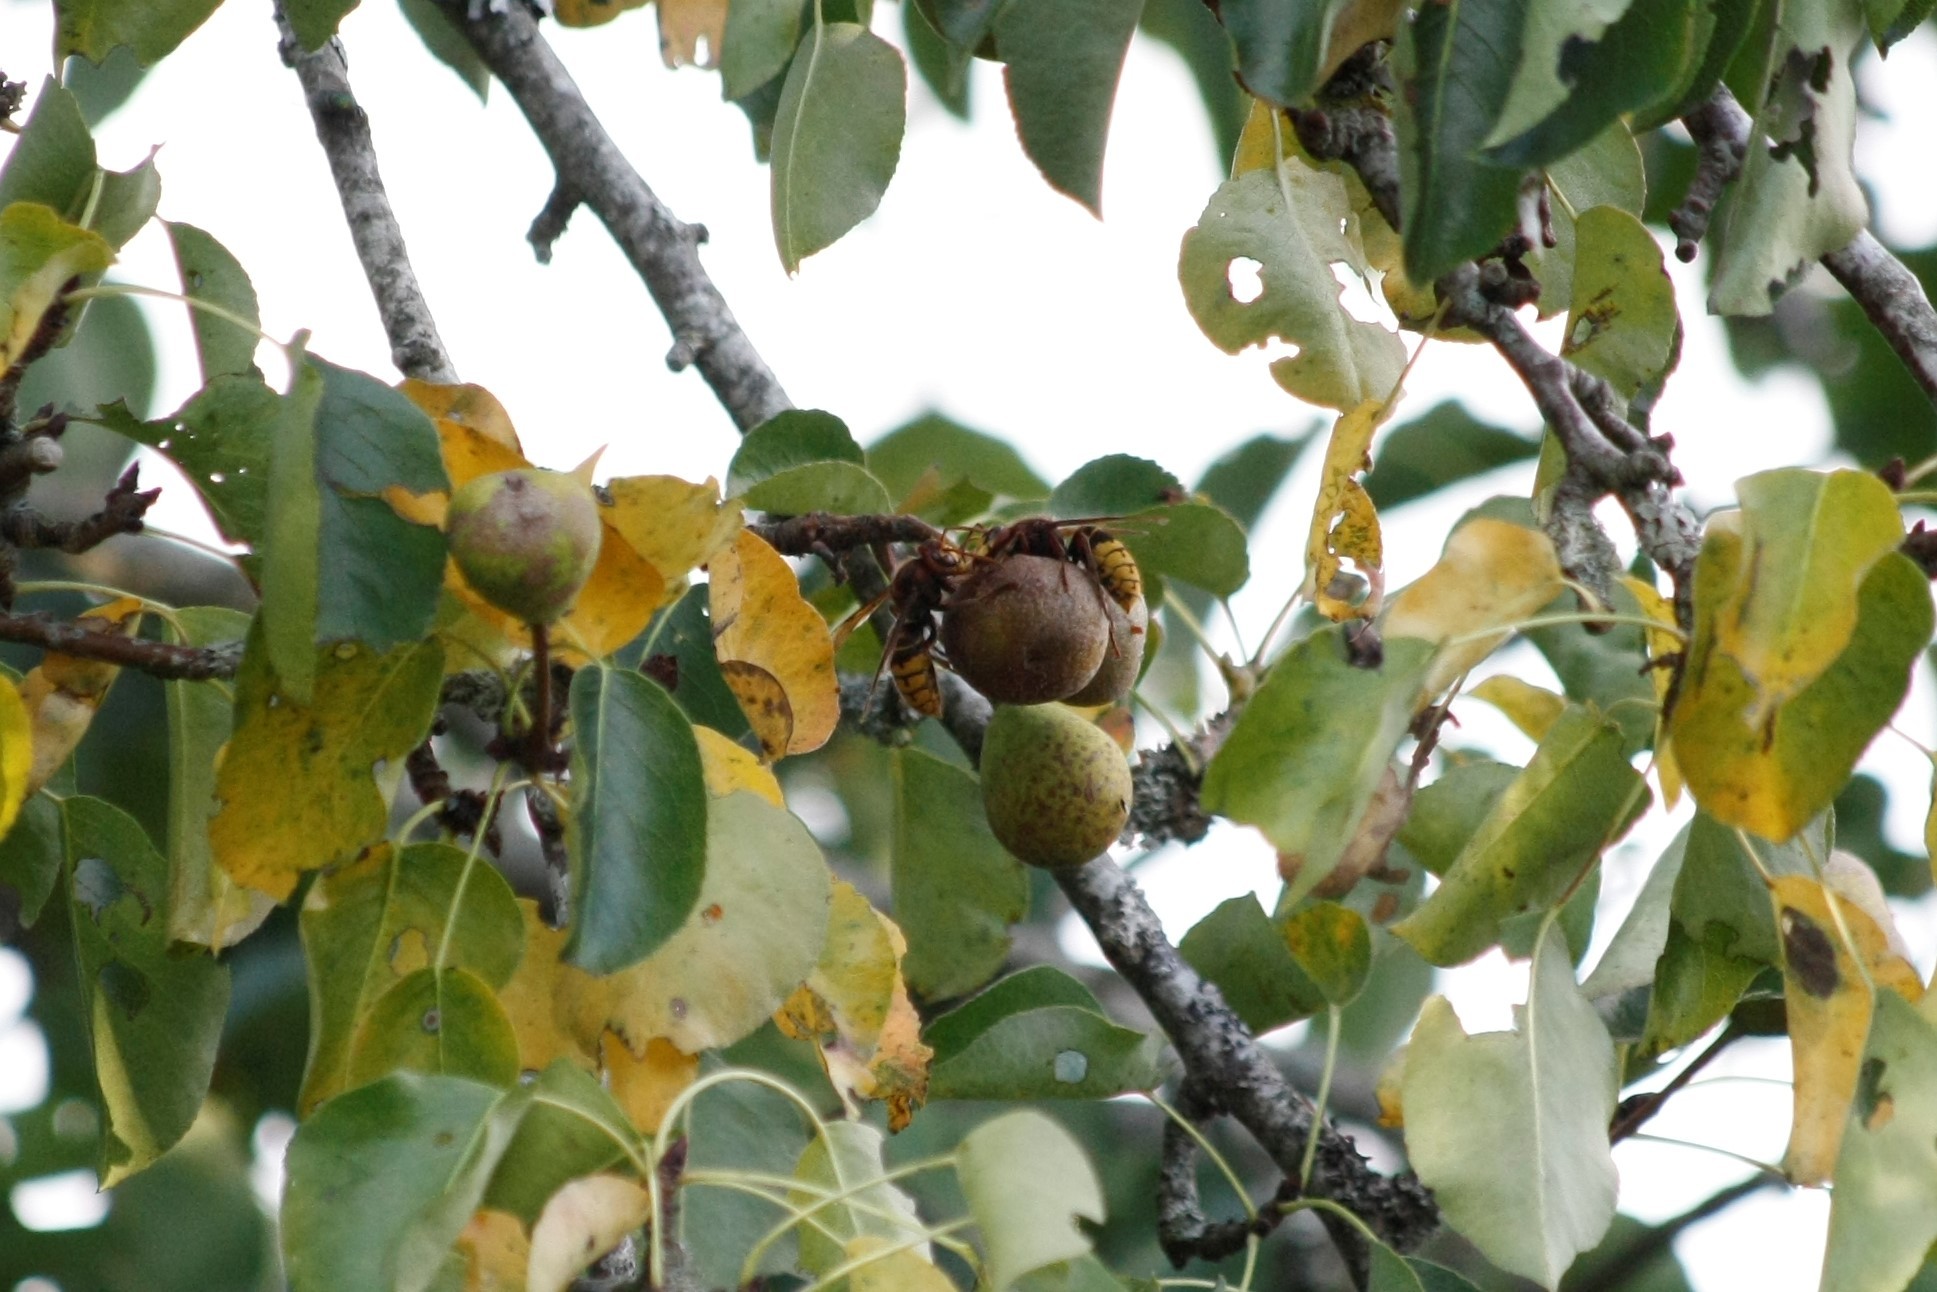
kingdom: Animalia
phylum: Arthropoda
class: Insecta
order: Hymenoptera
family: Vespidae
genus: Vespa
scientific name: Vespa crabro
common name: Hornet
